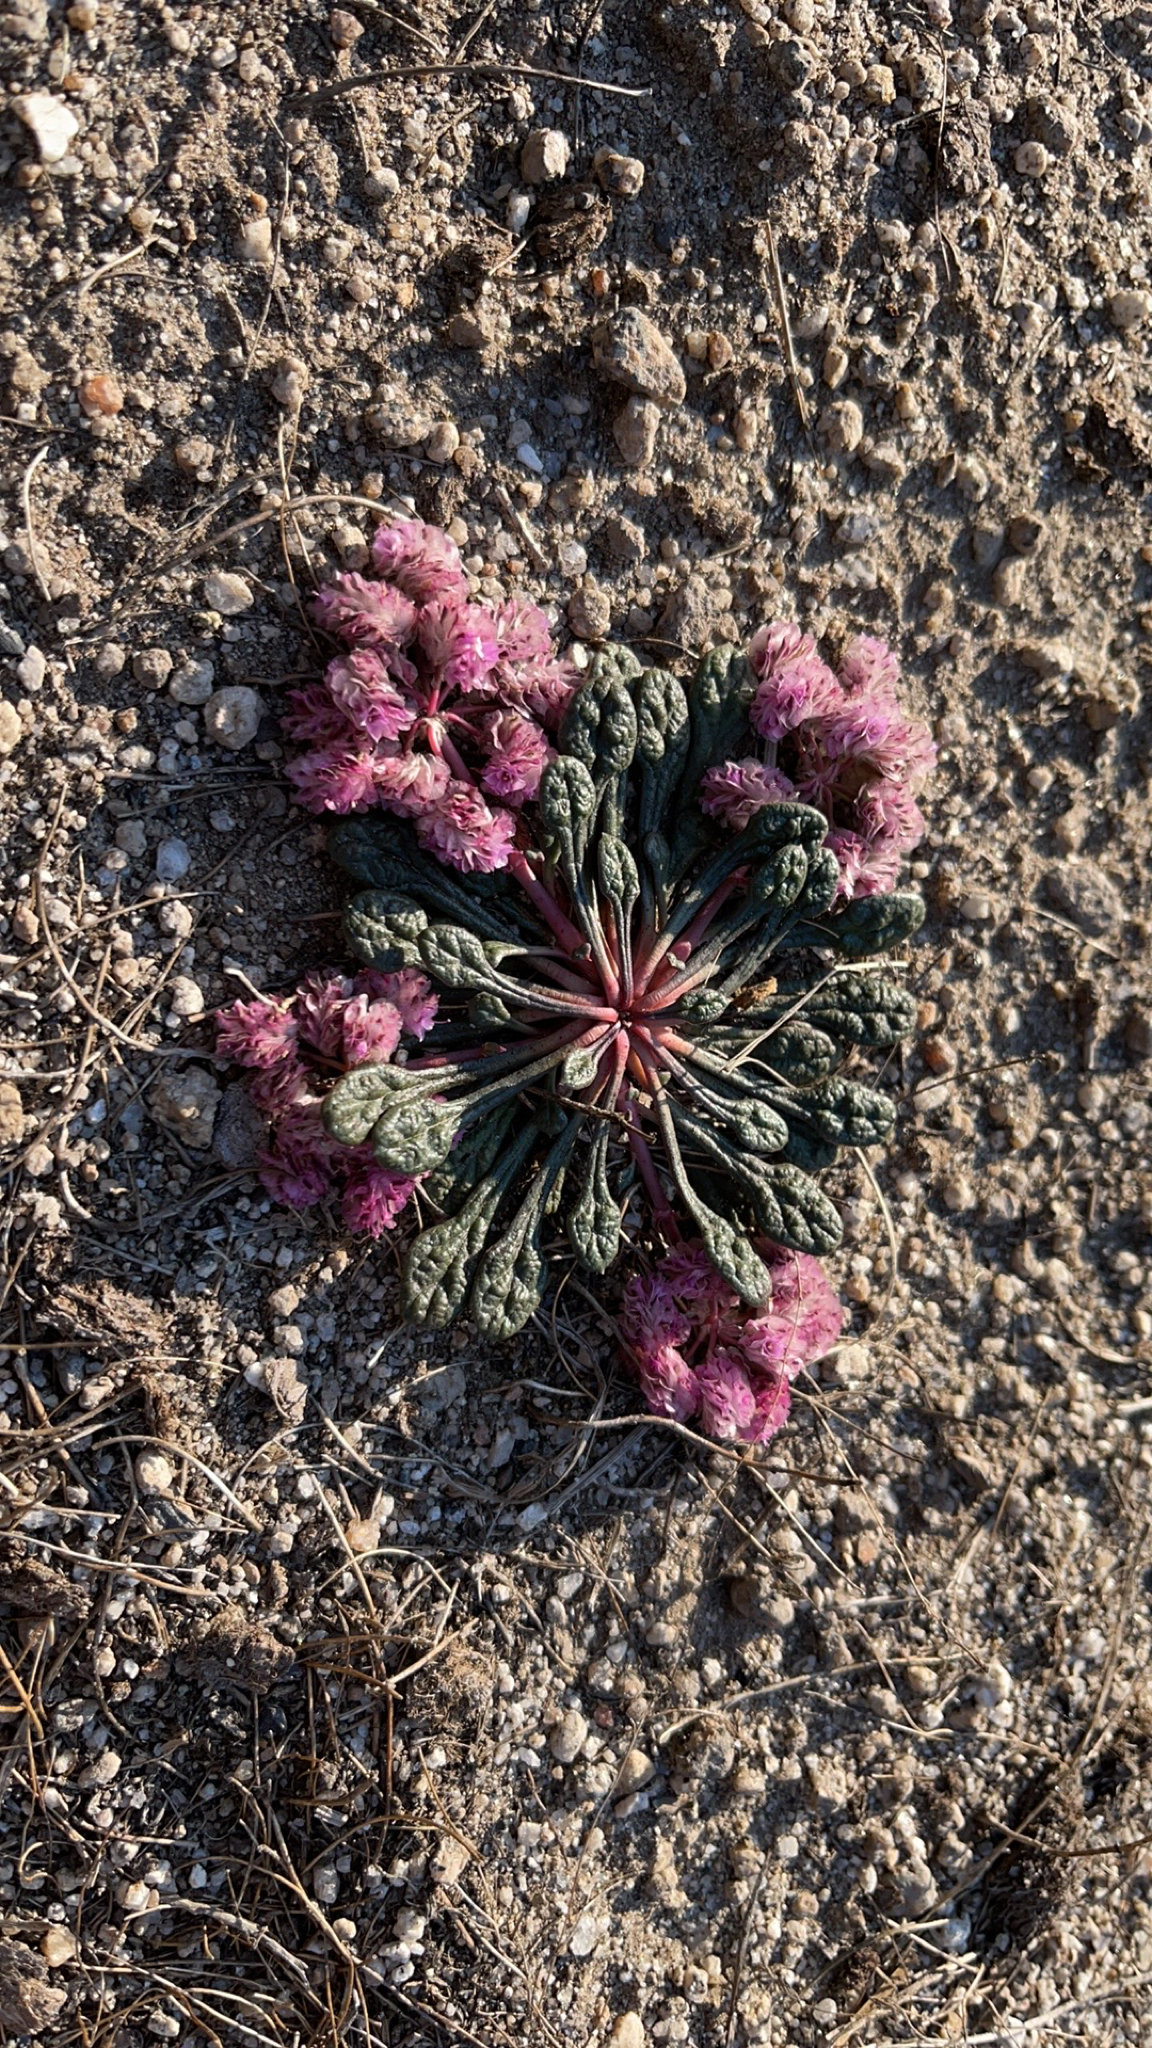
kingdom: Plantae
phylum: Tracheophyta
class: Magnoliopsida
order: Caryophyllales
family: Montiaceae
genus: Calyptridium
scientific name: Calyptridium monospermum
